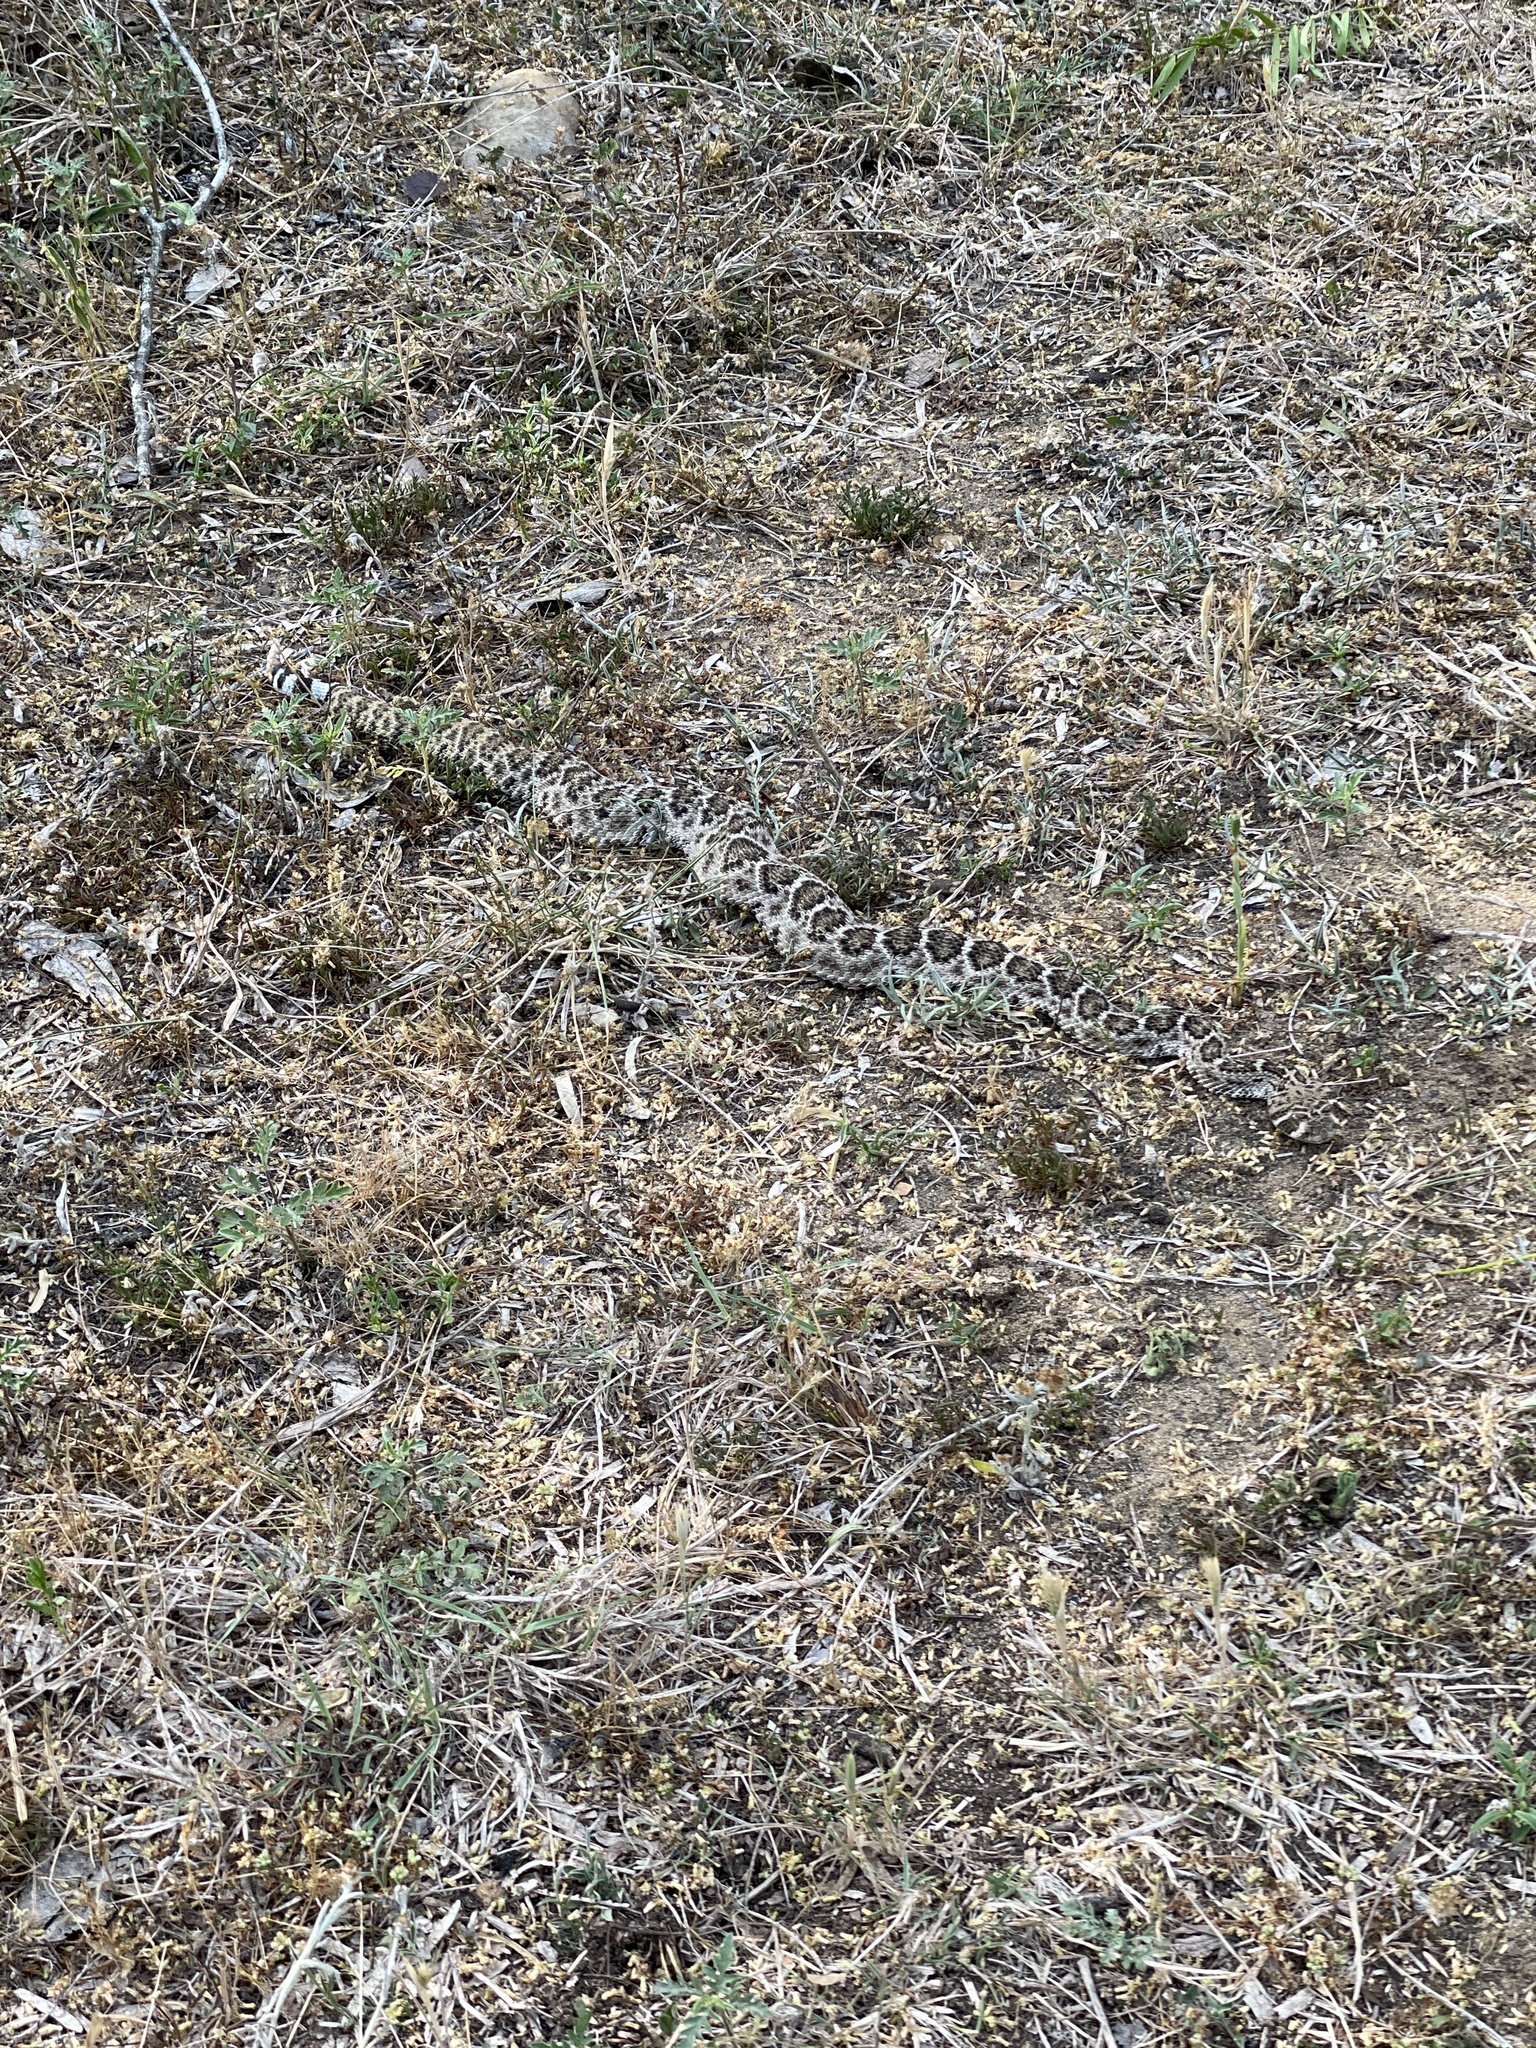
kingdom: Animalia
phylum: Chordata
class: Squamata
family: Viperidae
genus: Crotalus
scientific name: Crotalus atrox
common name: Western diamond-backed rattlesnake
